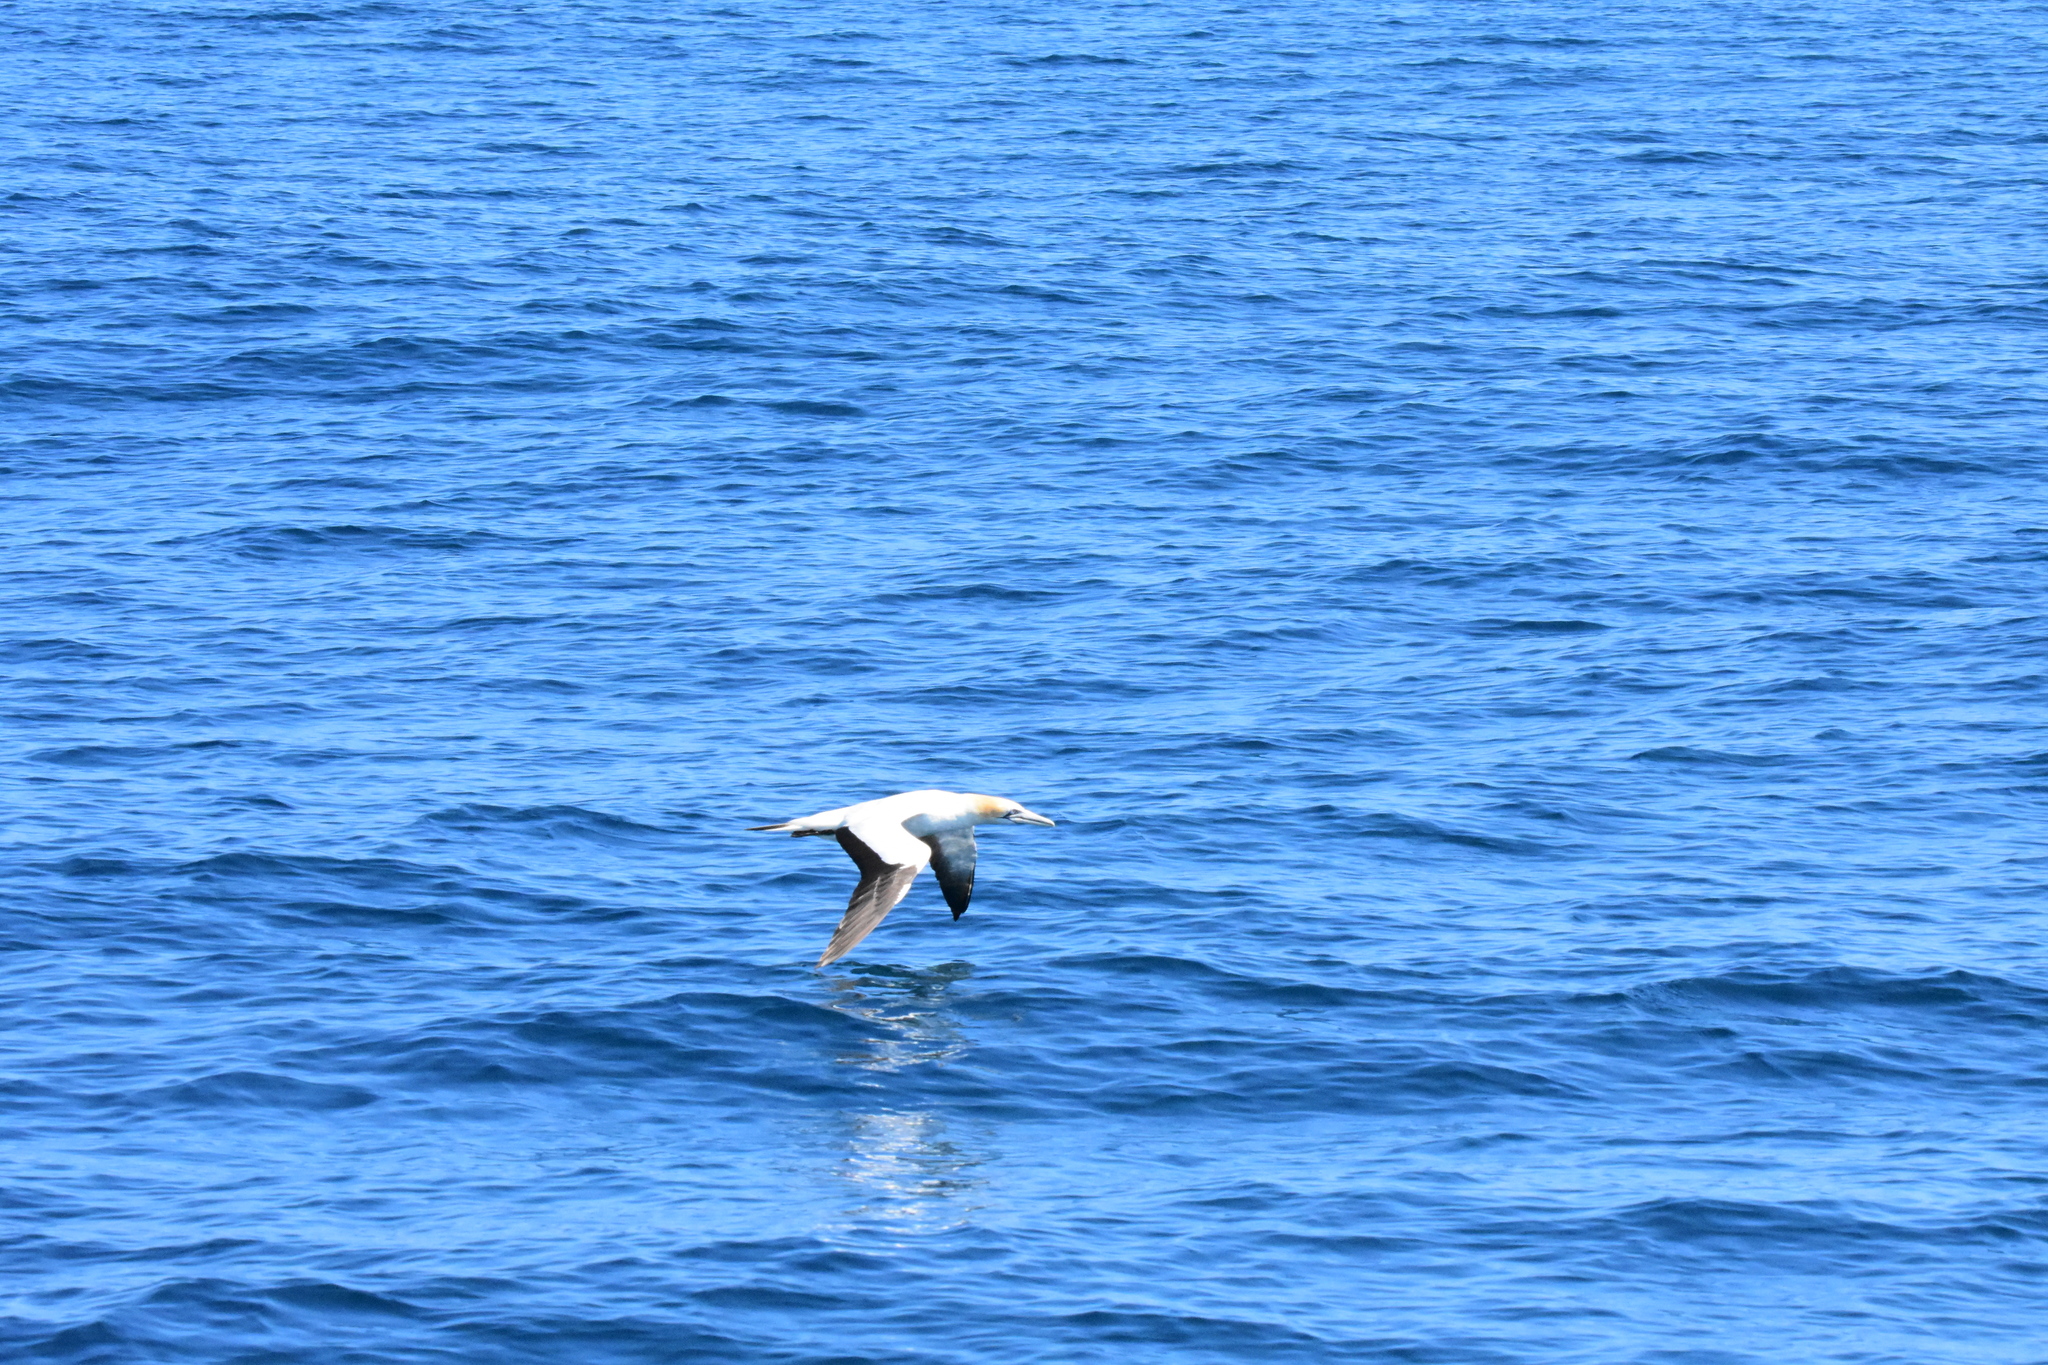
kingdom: Animalia
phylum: Chordata
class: Aves
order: Suliformes
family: Sulidae
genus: Morus
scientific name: Morus serrator
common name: Australasian gannet
